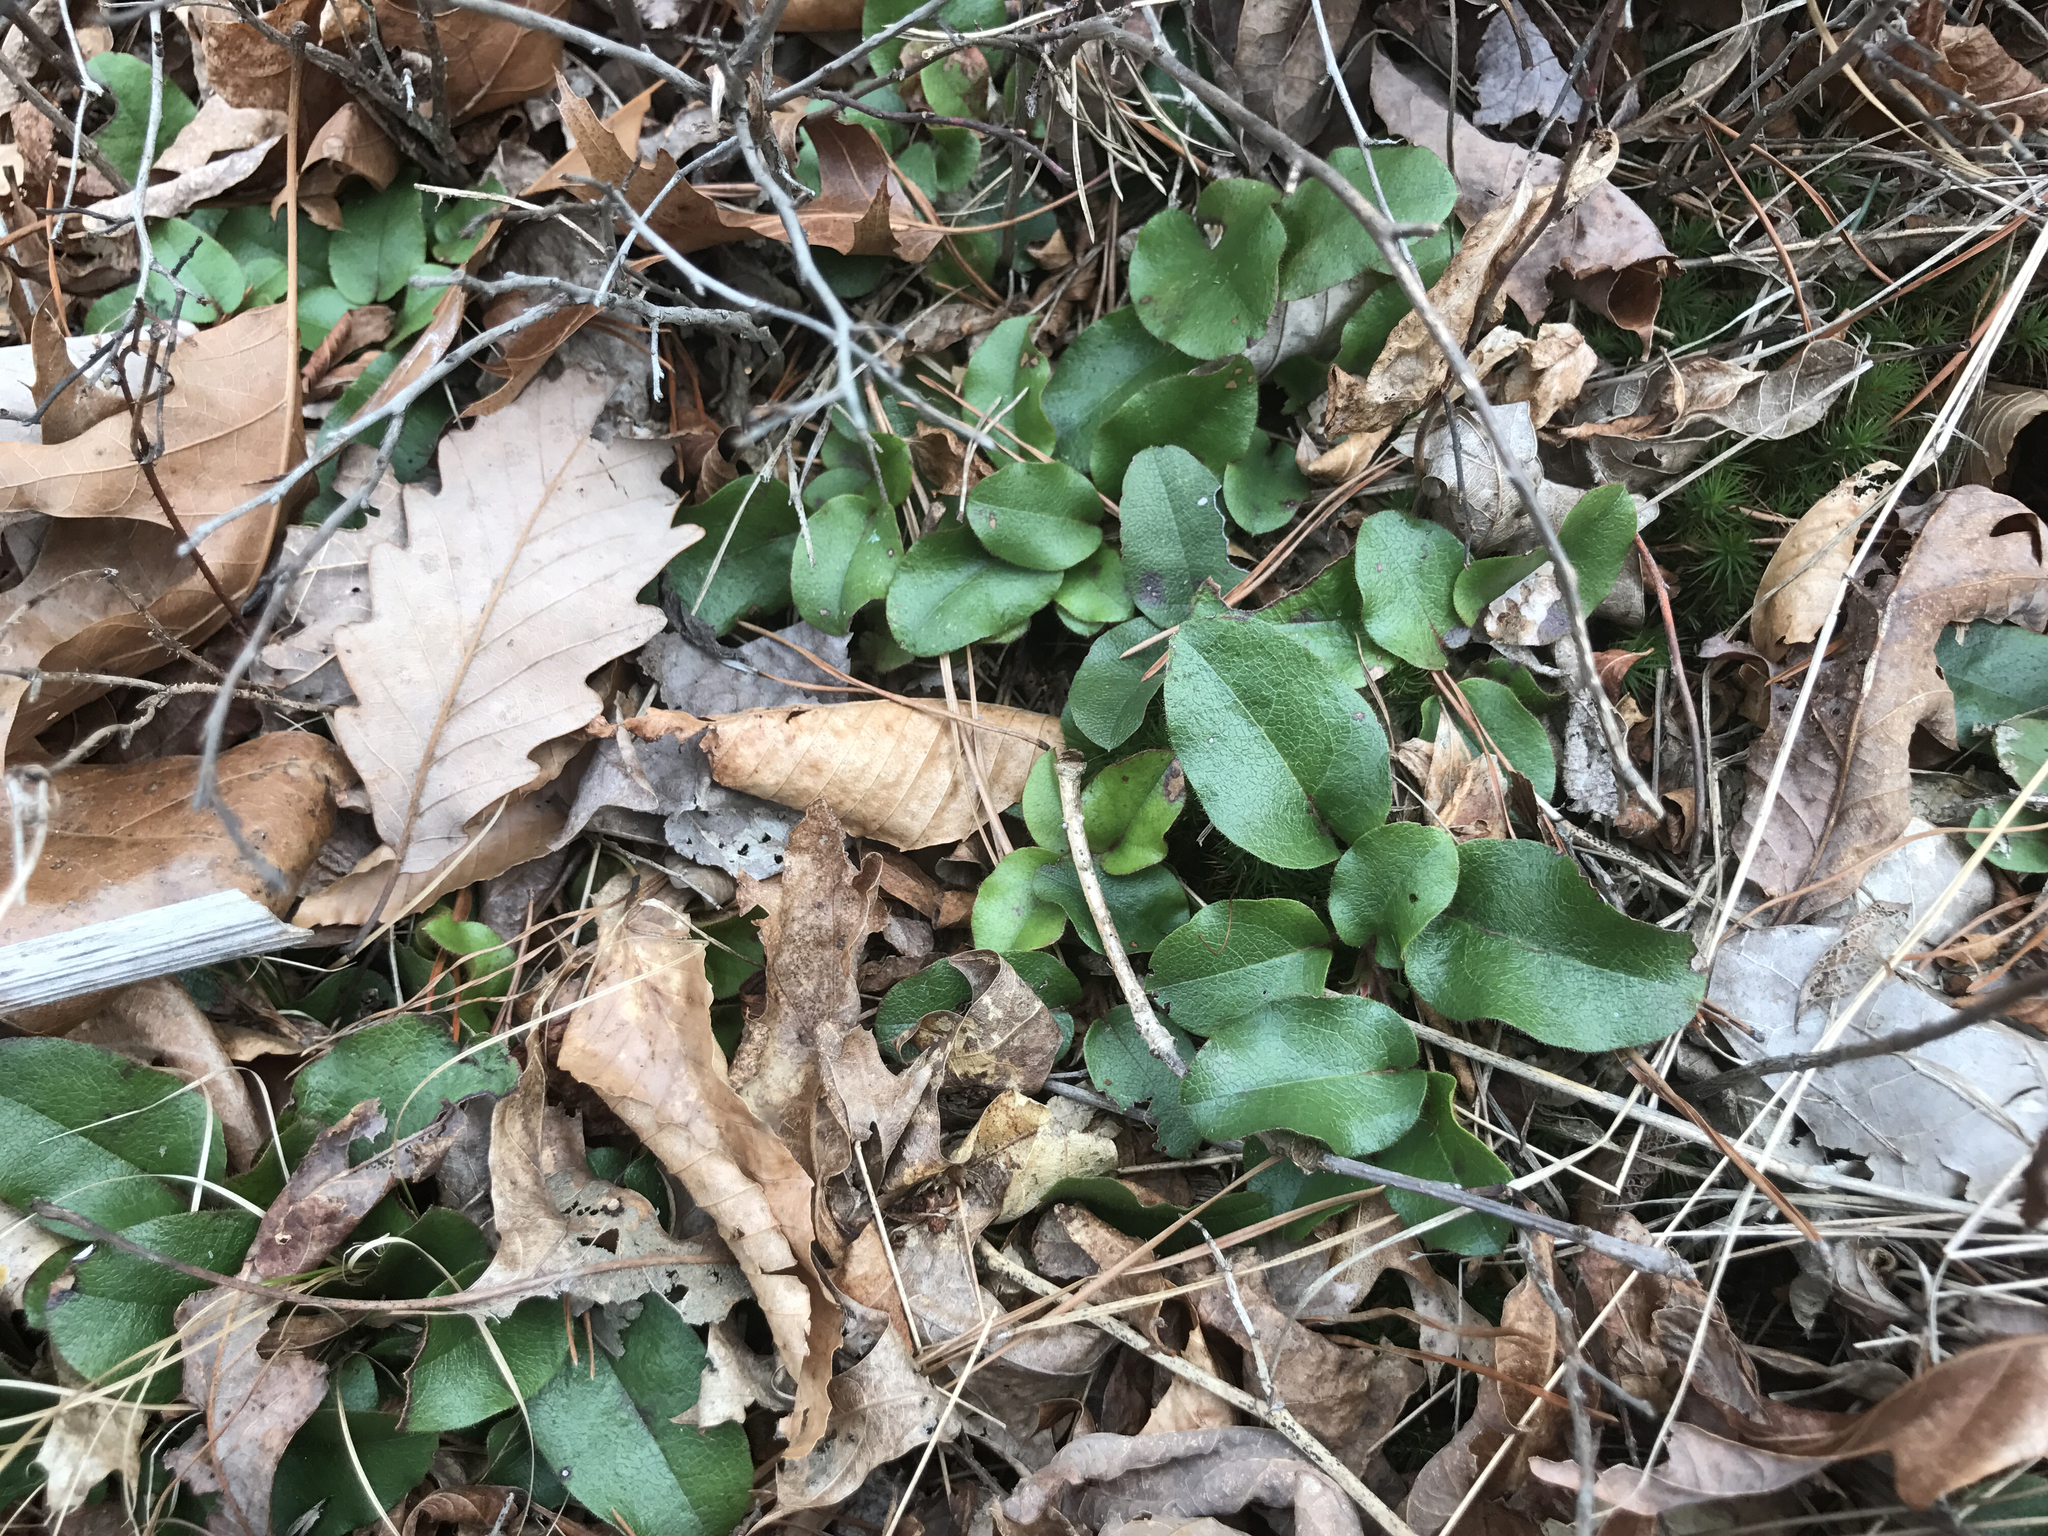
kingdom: Plantae
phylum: Tracheophyta
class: Magnoliopsida
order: Ericales
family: Ericaceae
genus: Epigaea
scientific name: Epigaea repens
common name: Gravelroot
